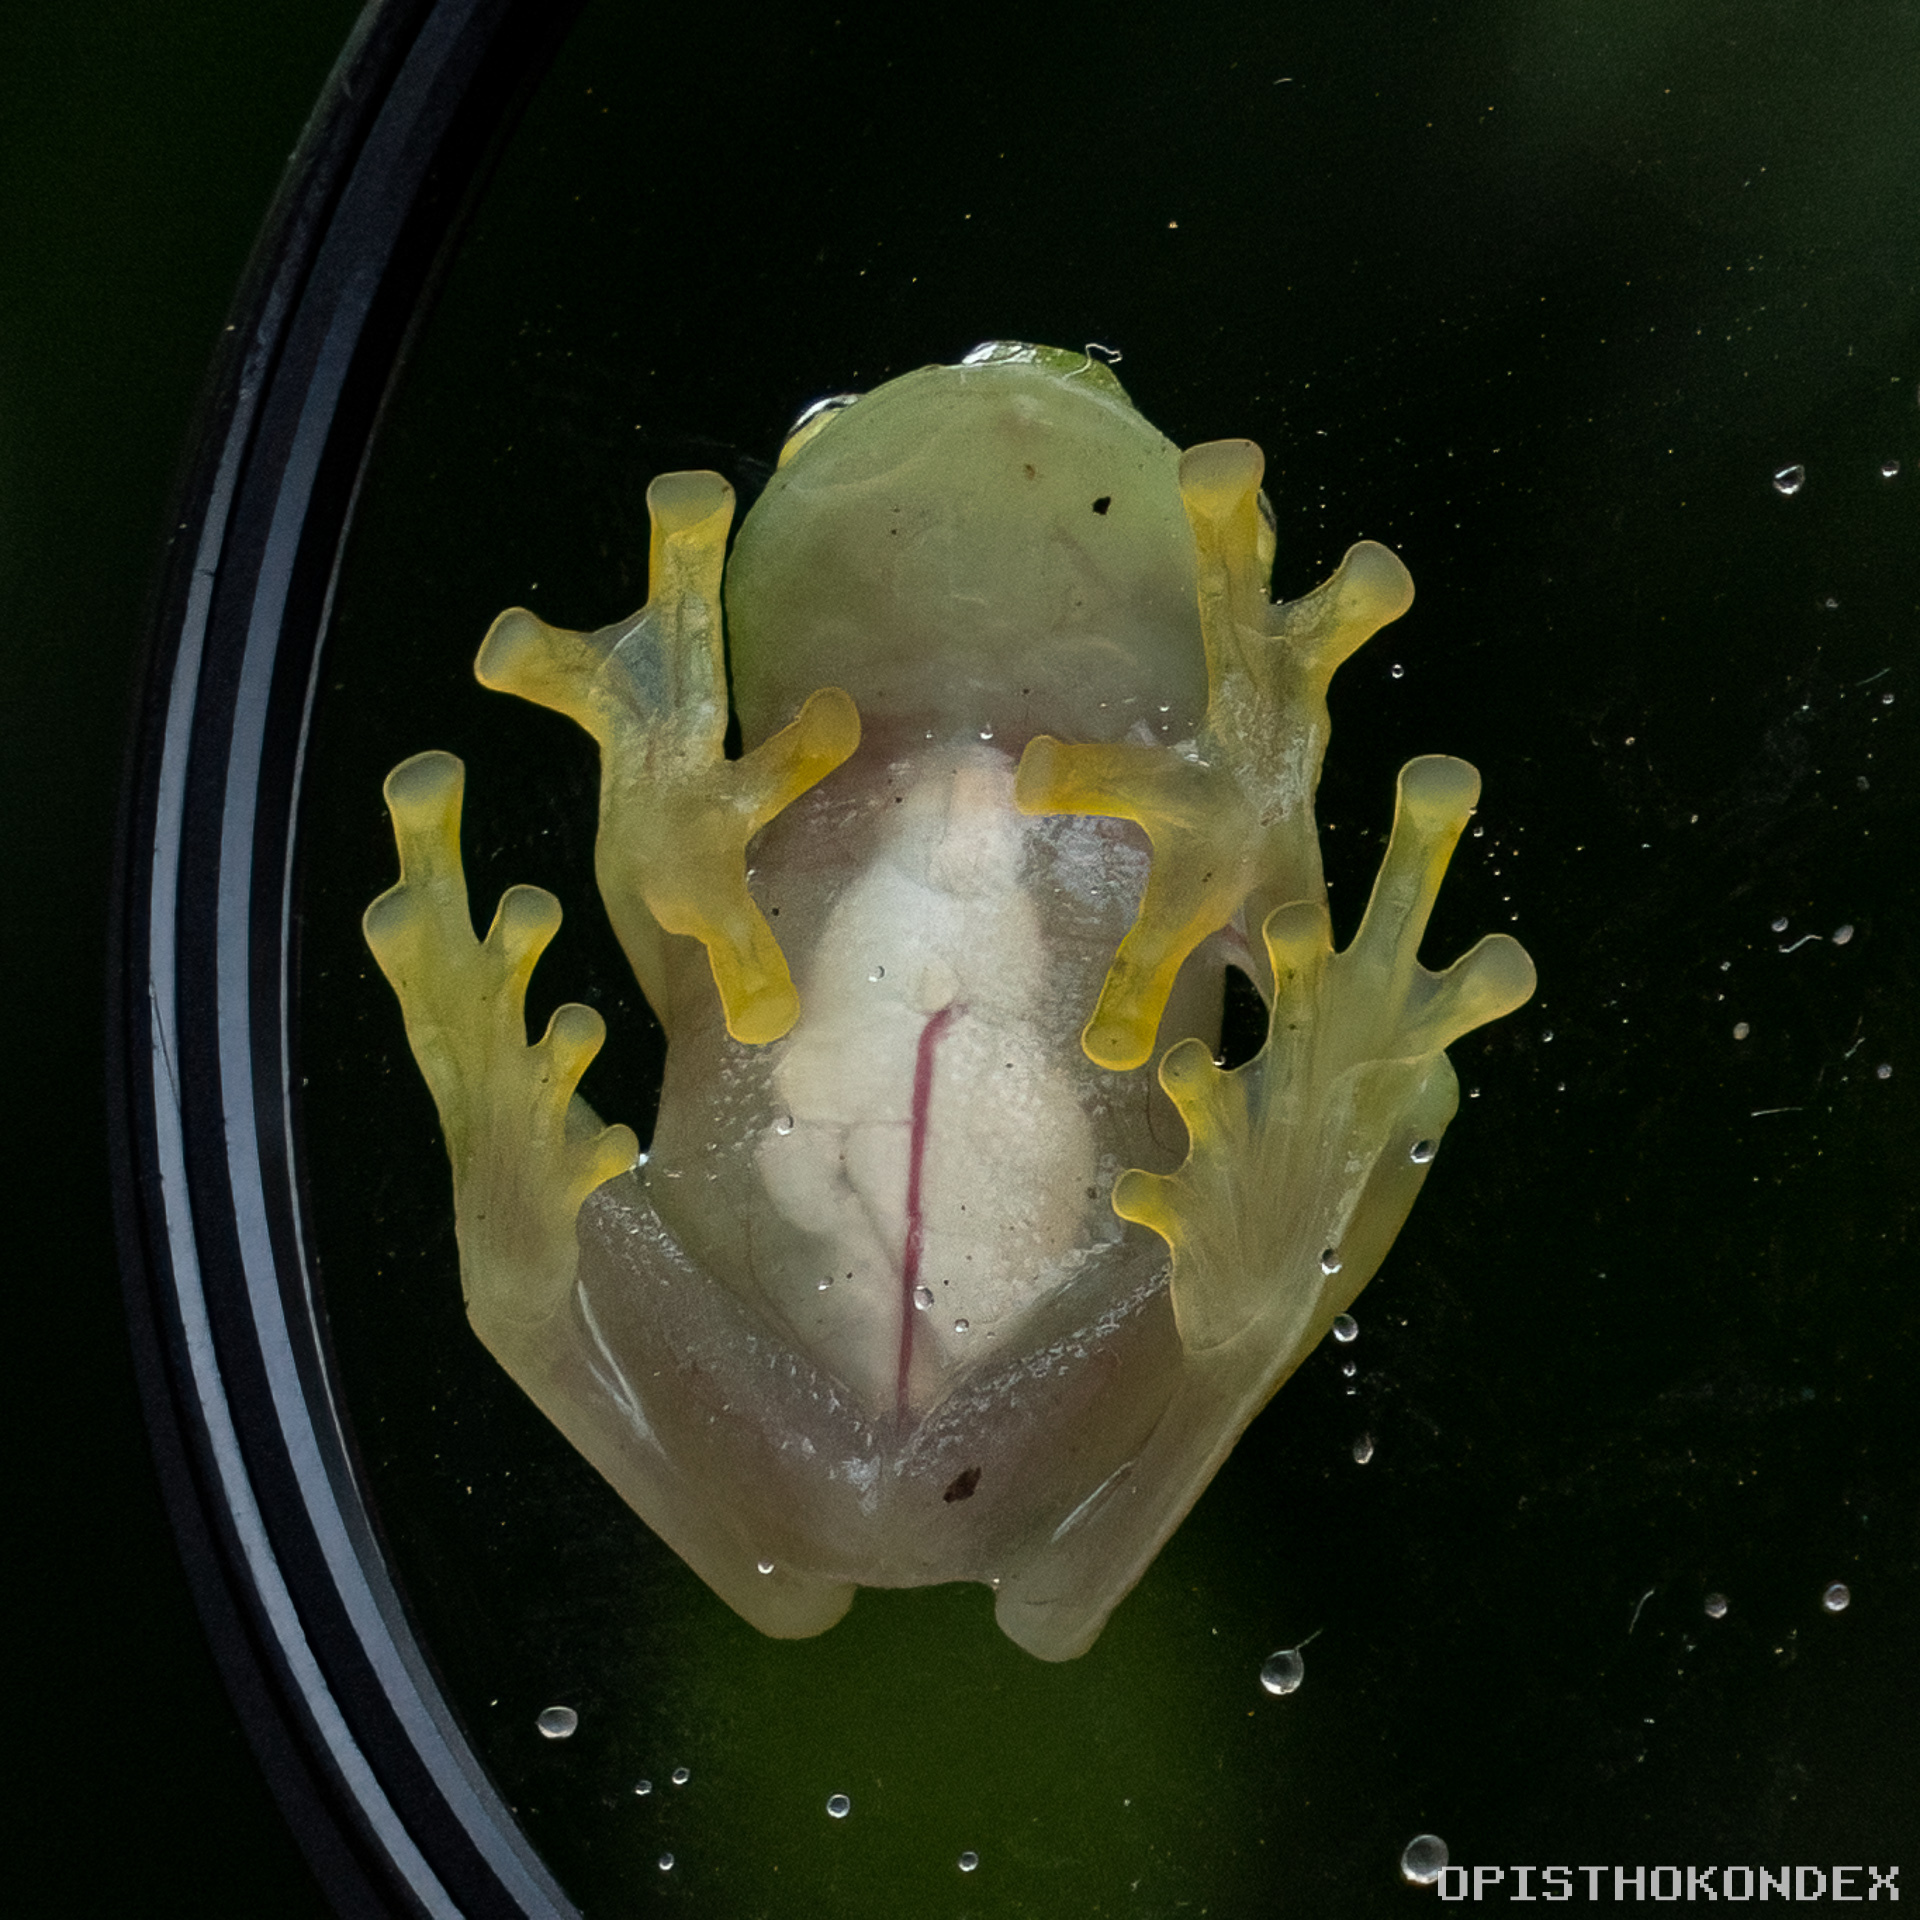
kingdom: Animalia
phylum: Chordata
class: Amphibia
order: Anura
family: Centrolenidae
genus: Hyalinobatrachium
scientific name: Hyalinobatrachium
